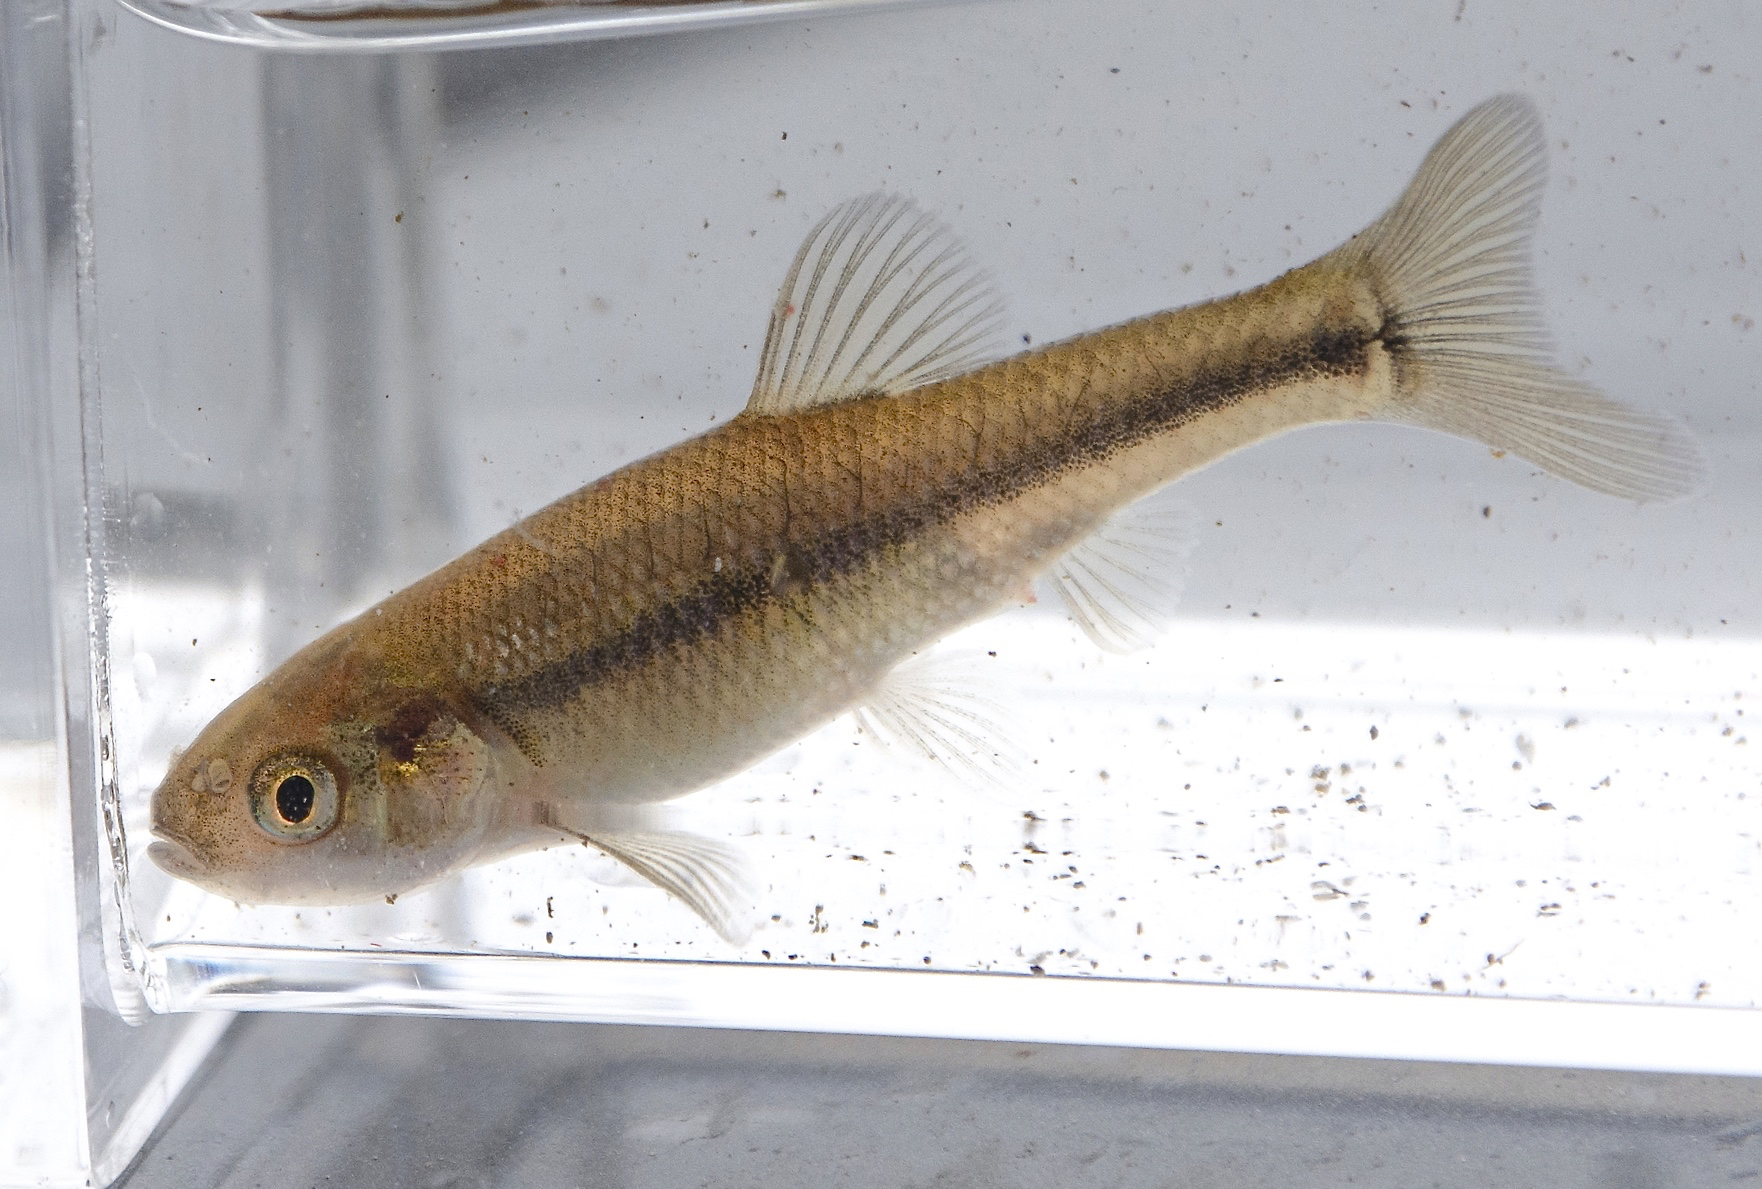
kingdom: Animalia
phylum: Chordata
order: Cypriniformes
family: Cyprinidae
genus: Pimephales
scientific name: Pimephales promelas
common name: Fathead minnow
